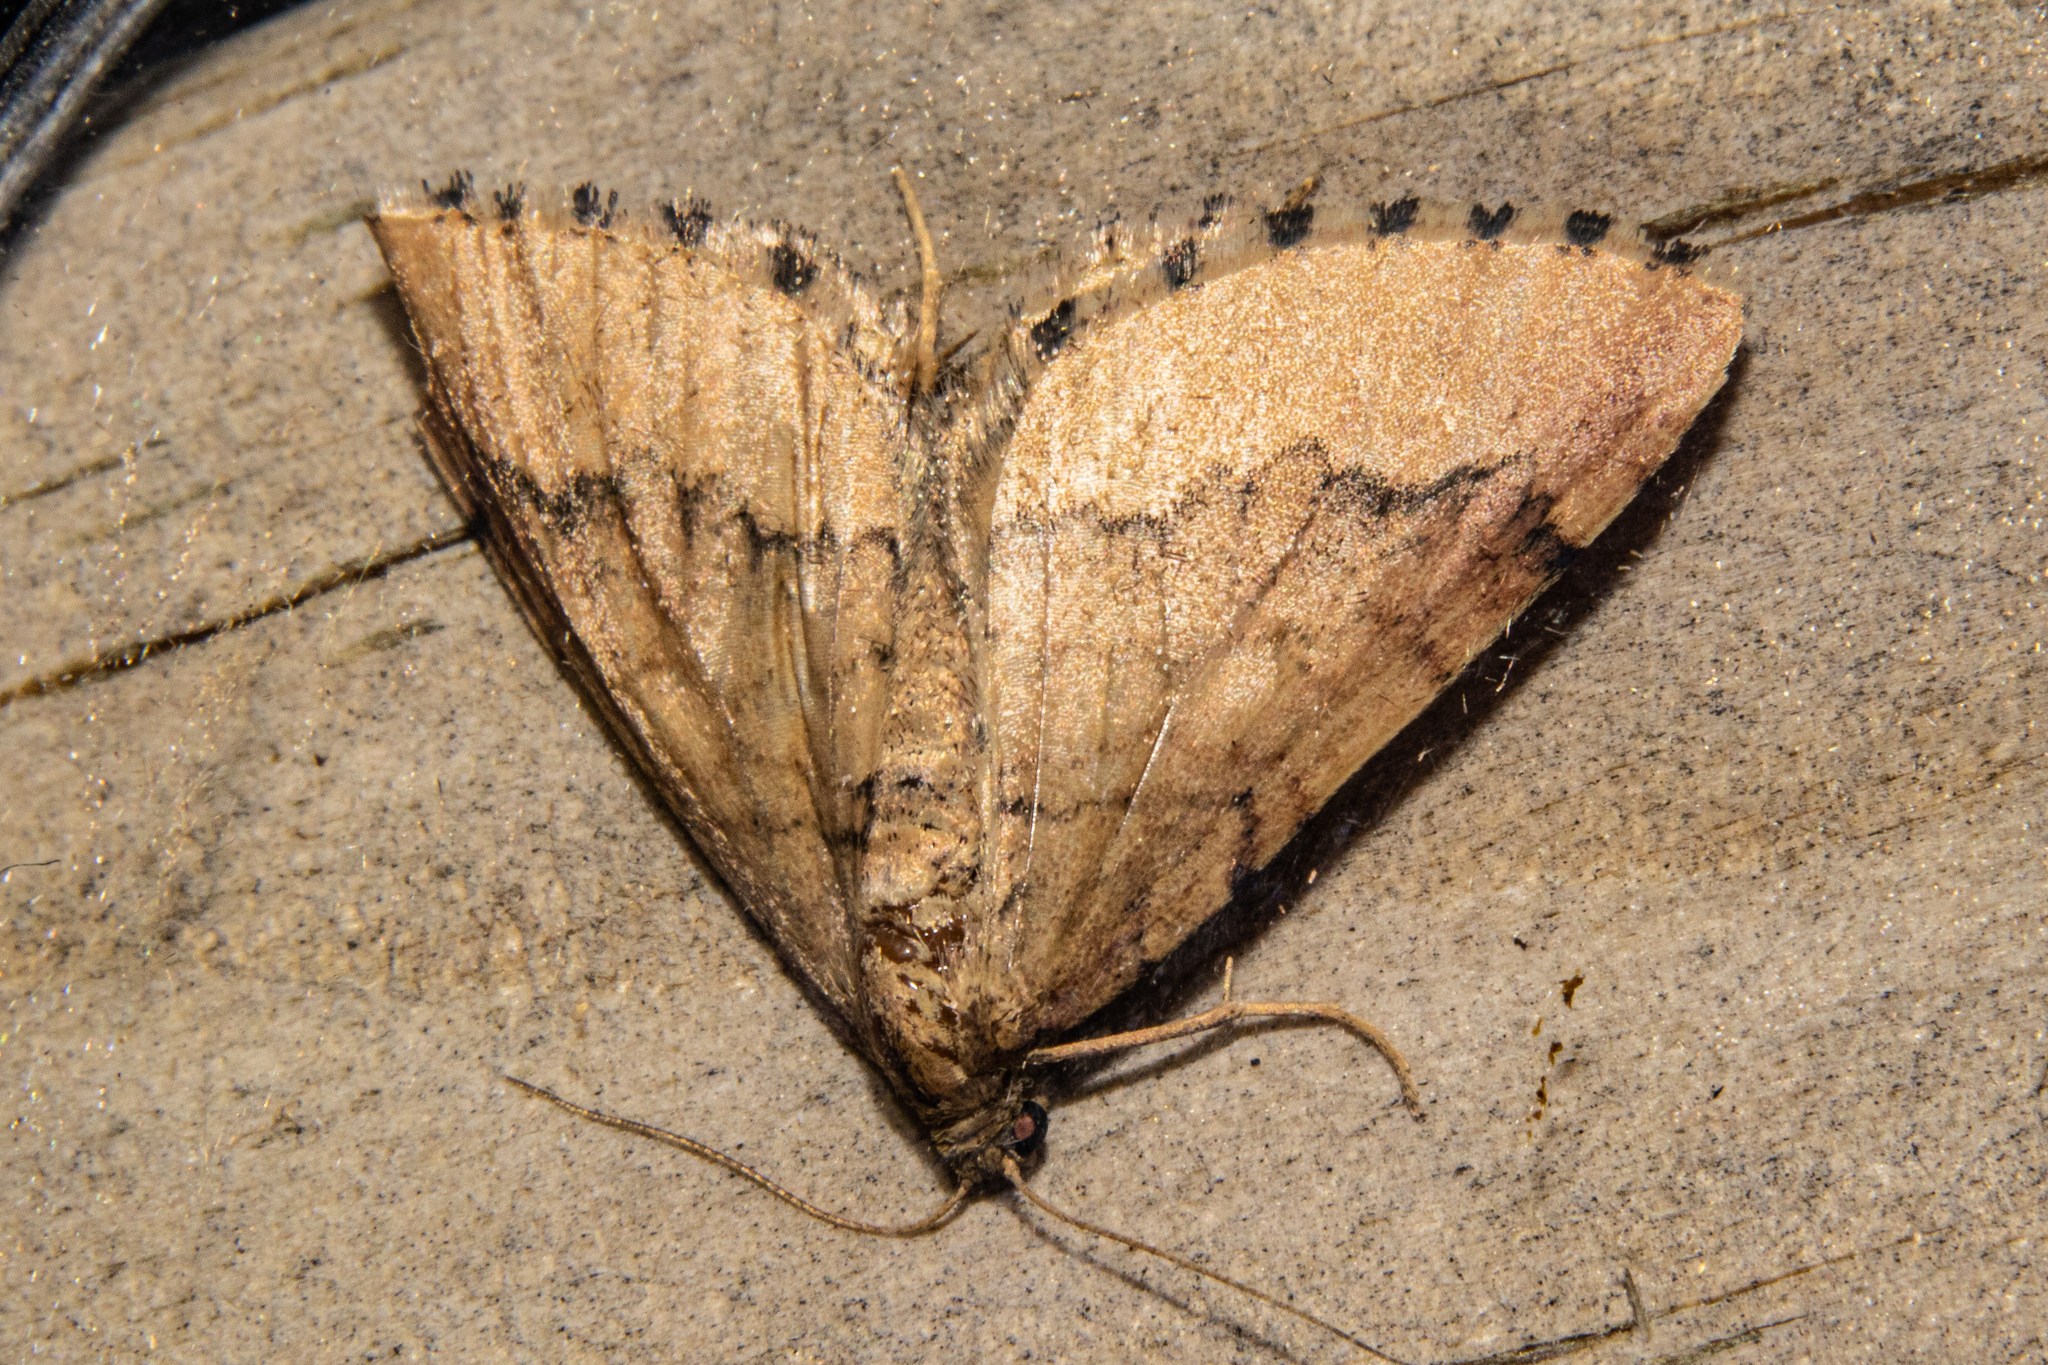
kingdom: Animalia
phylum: Arthropoda
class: Insecta
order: Lepidoptera
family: Geometridae
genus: Asaphodes
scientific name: Asaphodes aegrota
